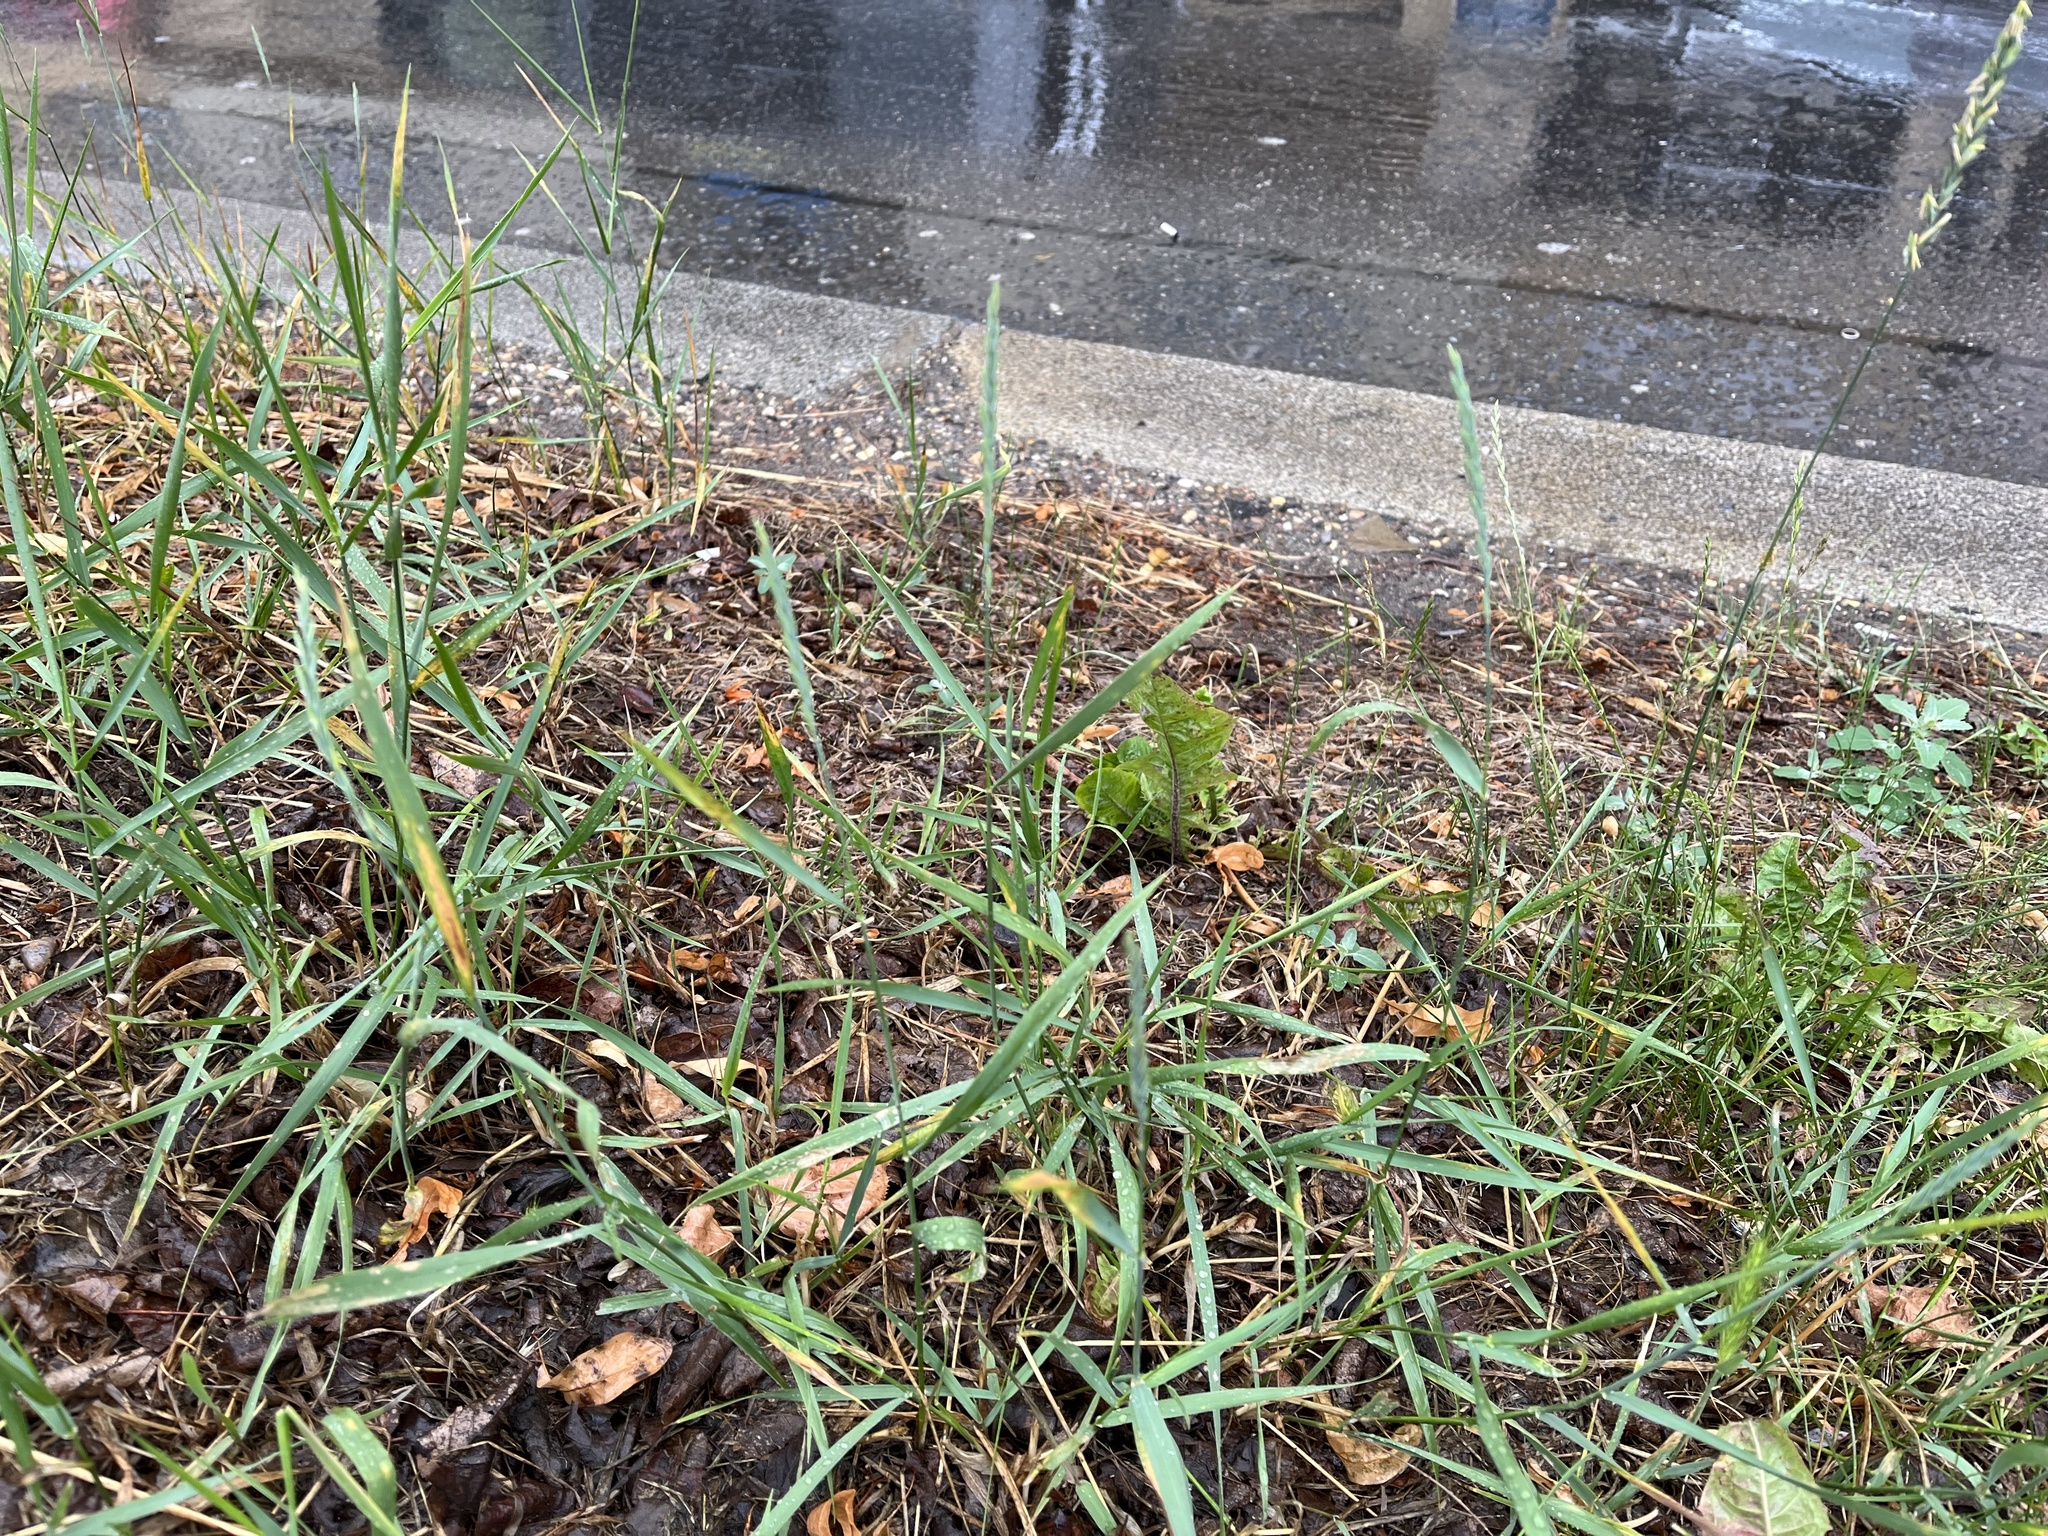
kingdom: Plantae
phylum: Tracheophyta
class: Liliopsida
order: Poales
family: Poaceae
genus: Elymus
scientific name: Elymus repens
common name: Quackgrass
